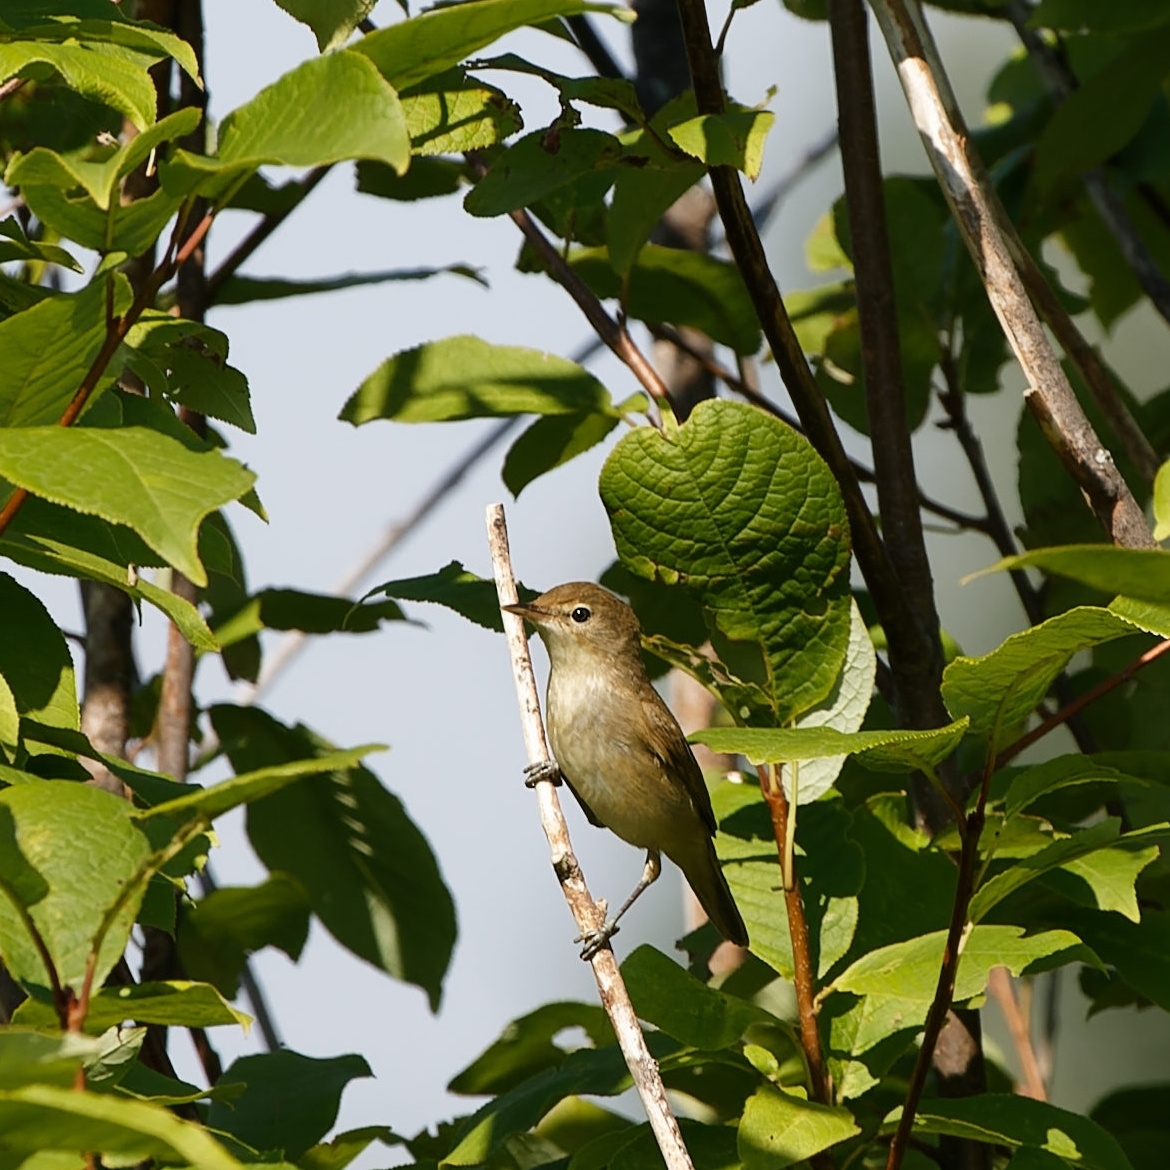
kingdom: Animalia
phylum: Chordata
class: Aves
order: Passeriformes
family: Acrocephalidae
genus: Acrocephalus
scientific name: Acrocephalus dumetorum
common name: Blyth's reed warbler
